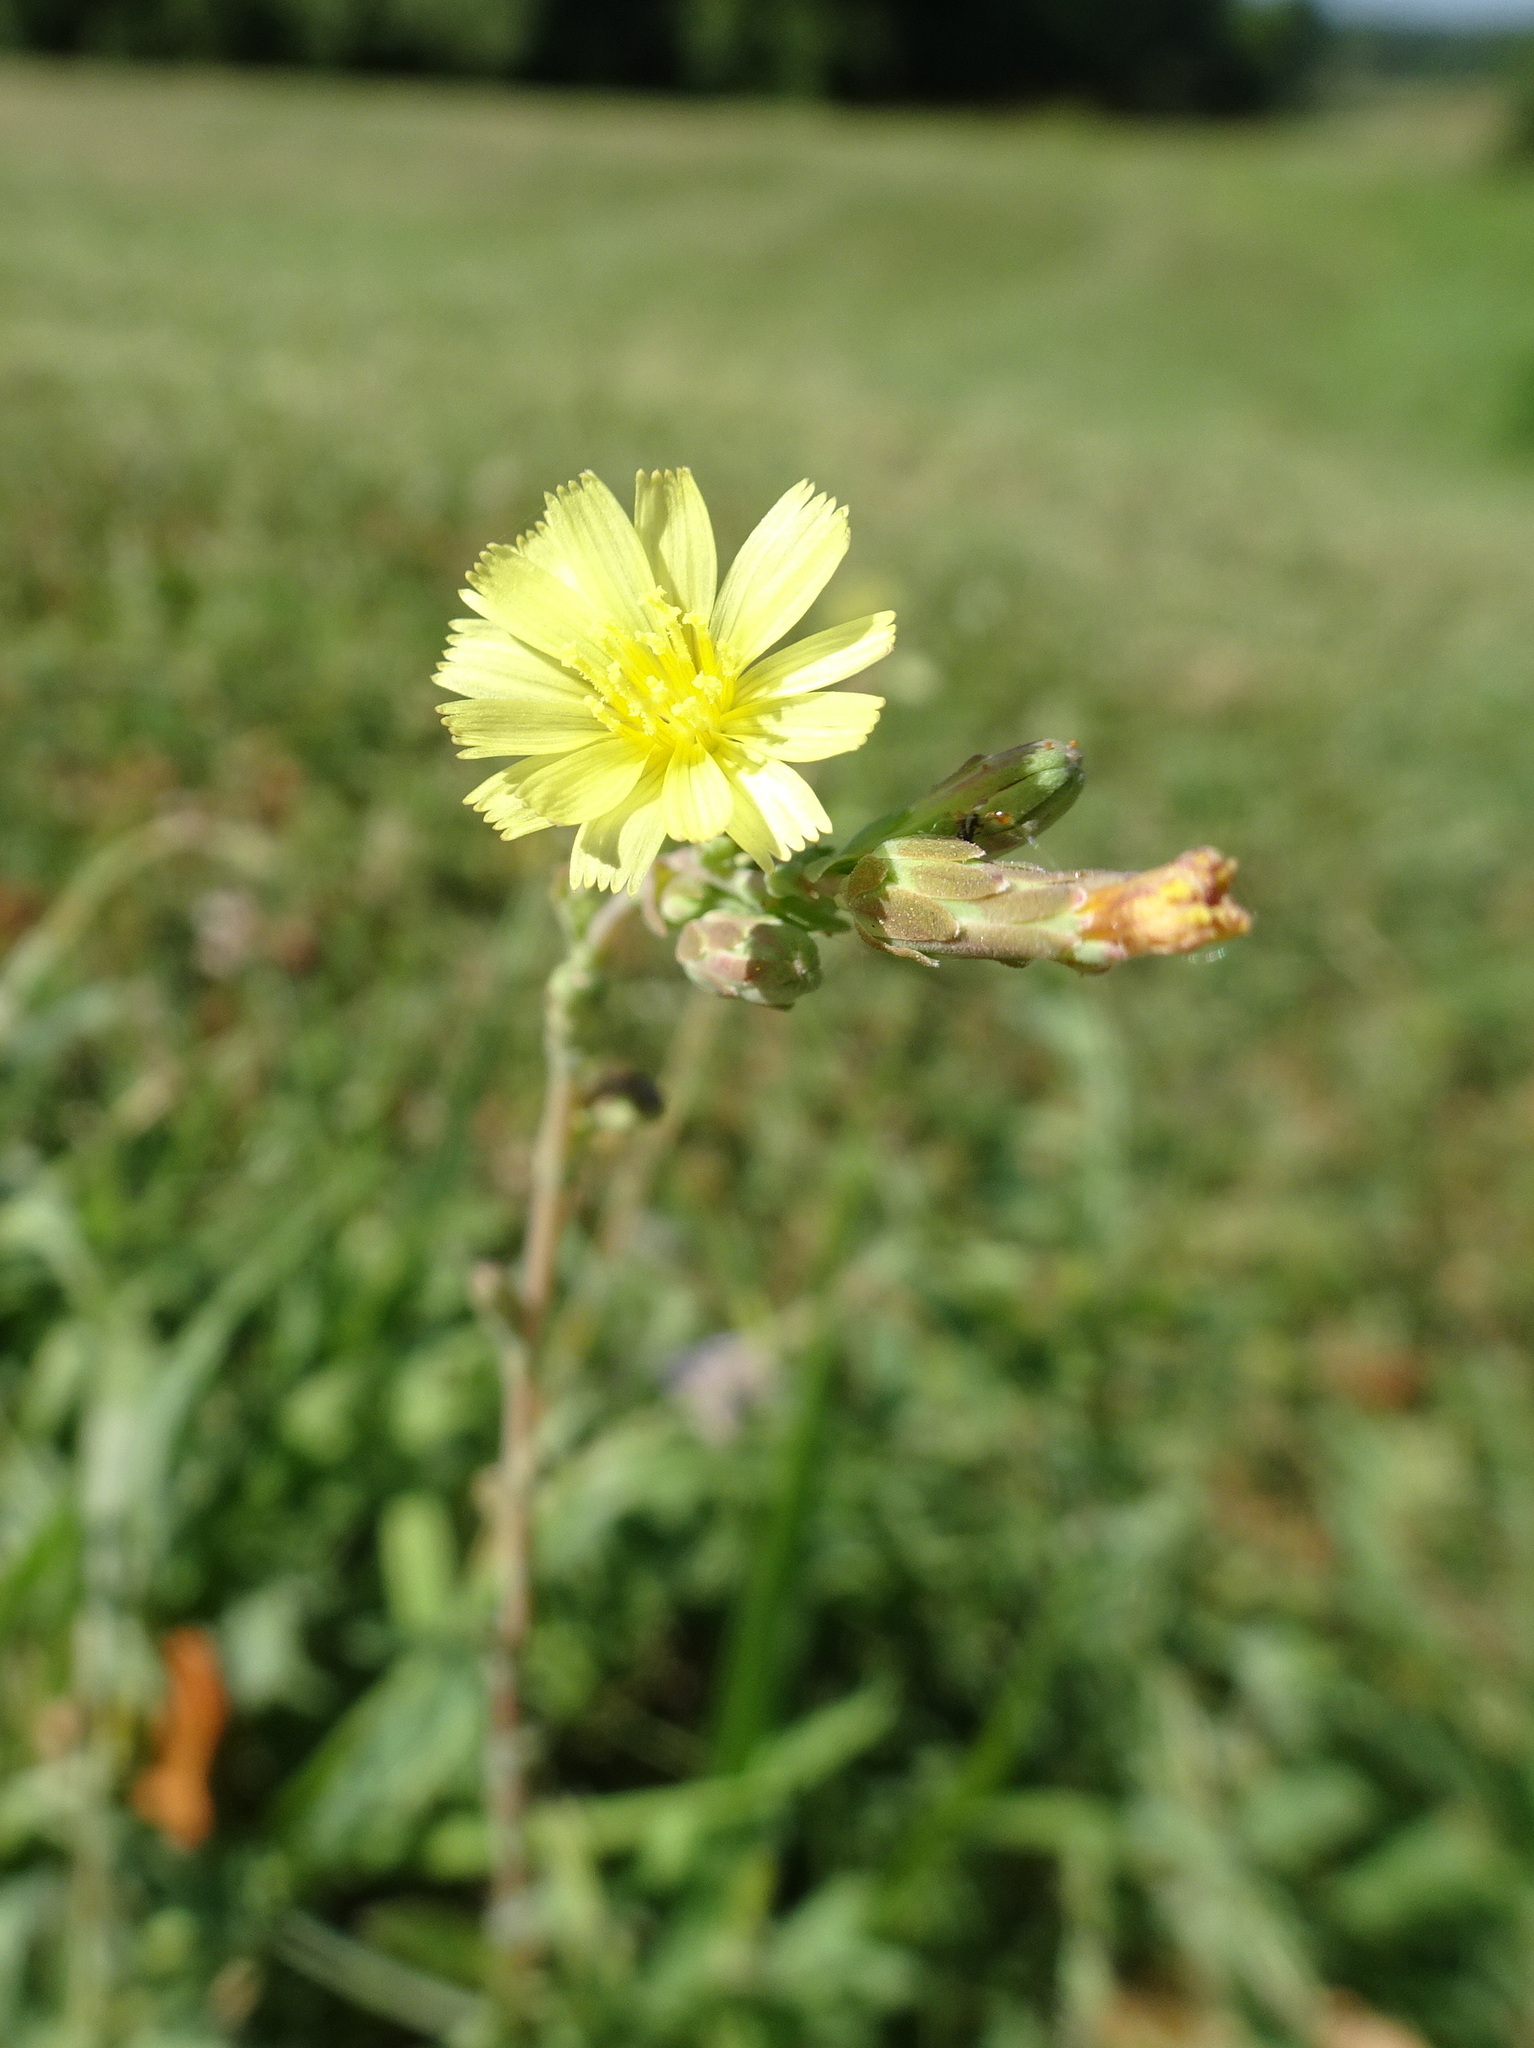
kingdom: Plantae
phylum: Tracheophyta
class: Magnoliopsida
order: Asterales
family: Asteraceae
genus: Lactuca
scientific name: Lactuca serriola
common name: Prickly lettuce
